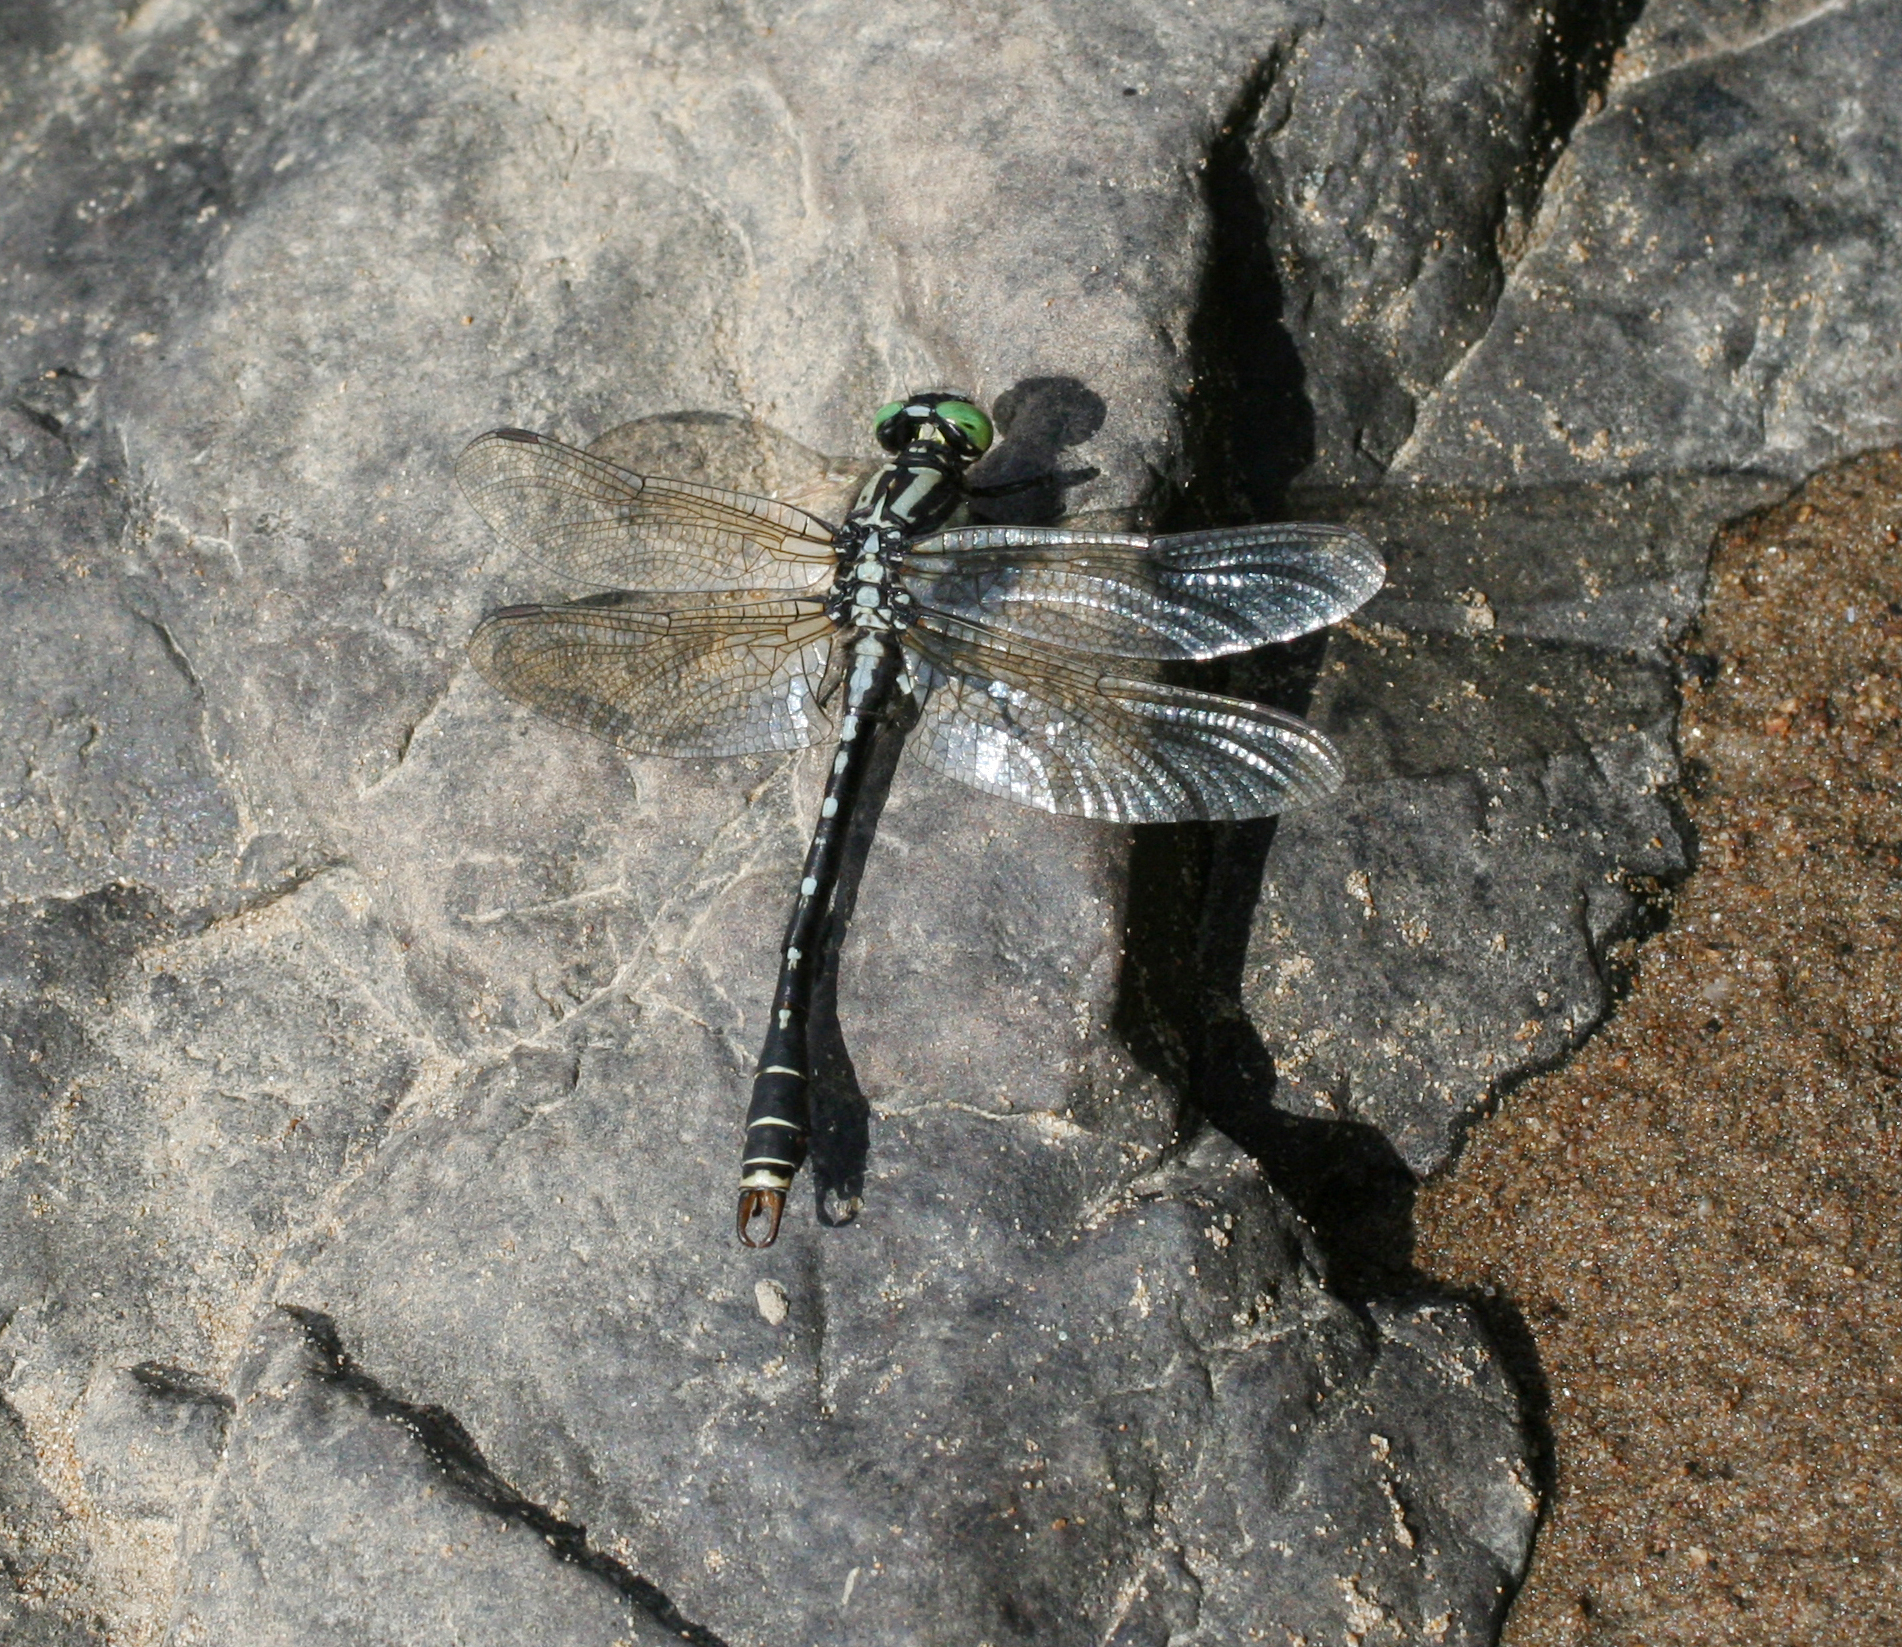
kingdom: Animalia
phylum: Arthropoda
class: Insecta
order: Odonata
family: Gomphidae
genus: Nihonogomphus
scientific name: Nihonogomphus ruptus
